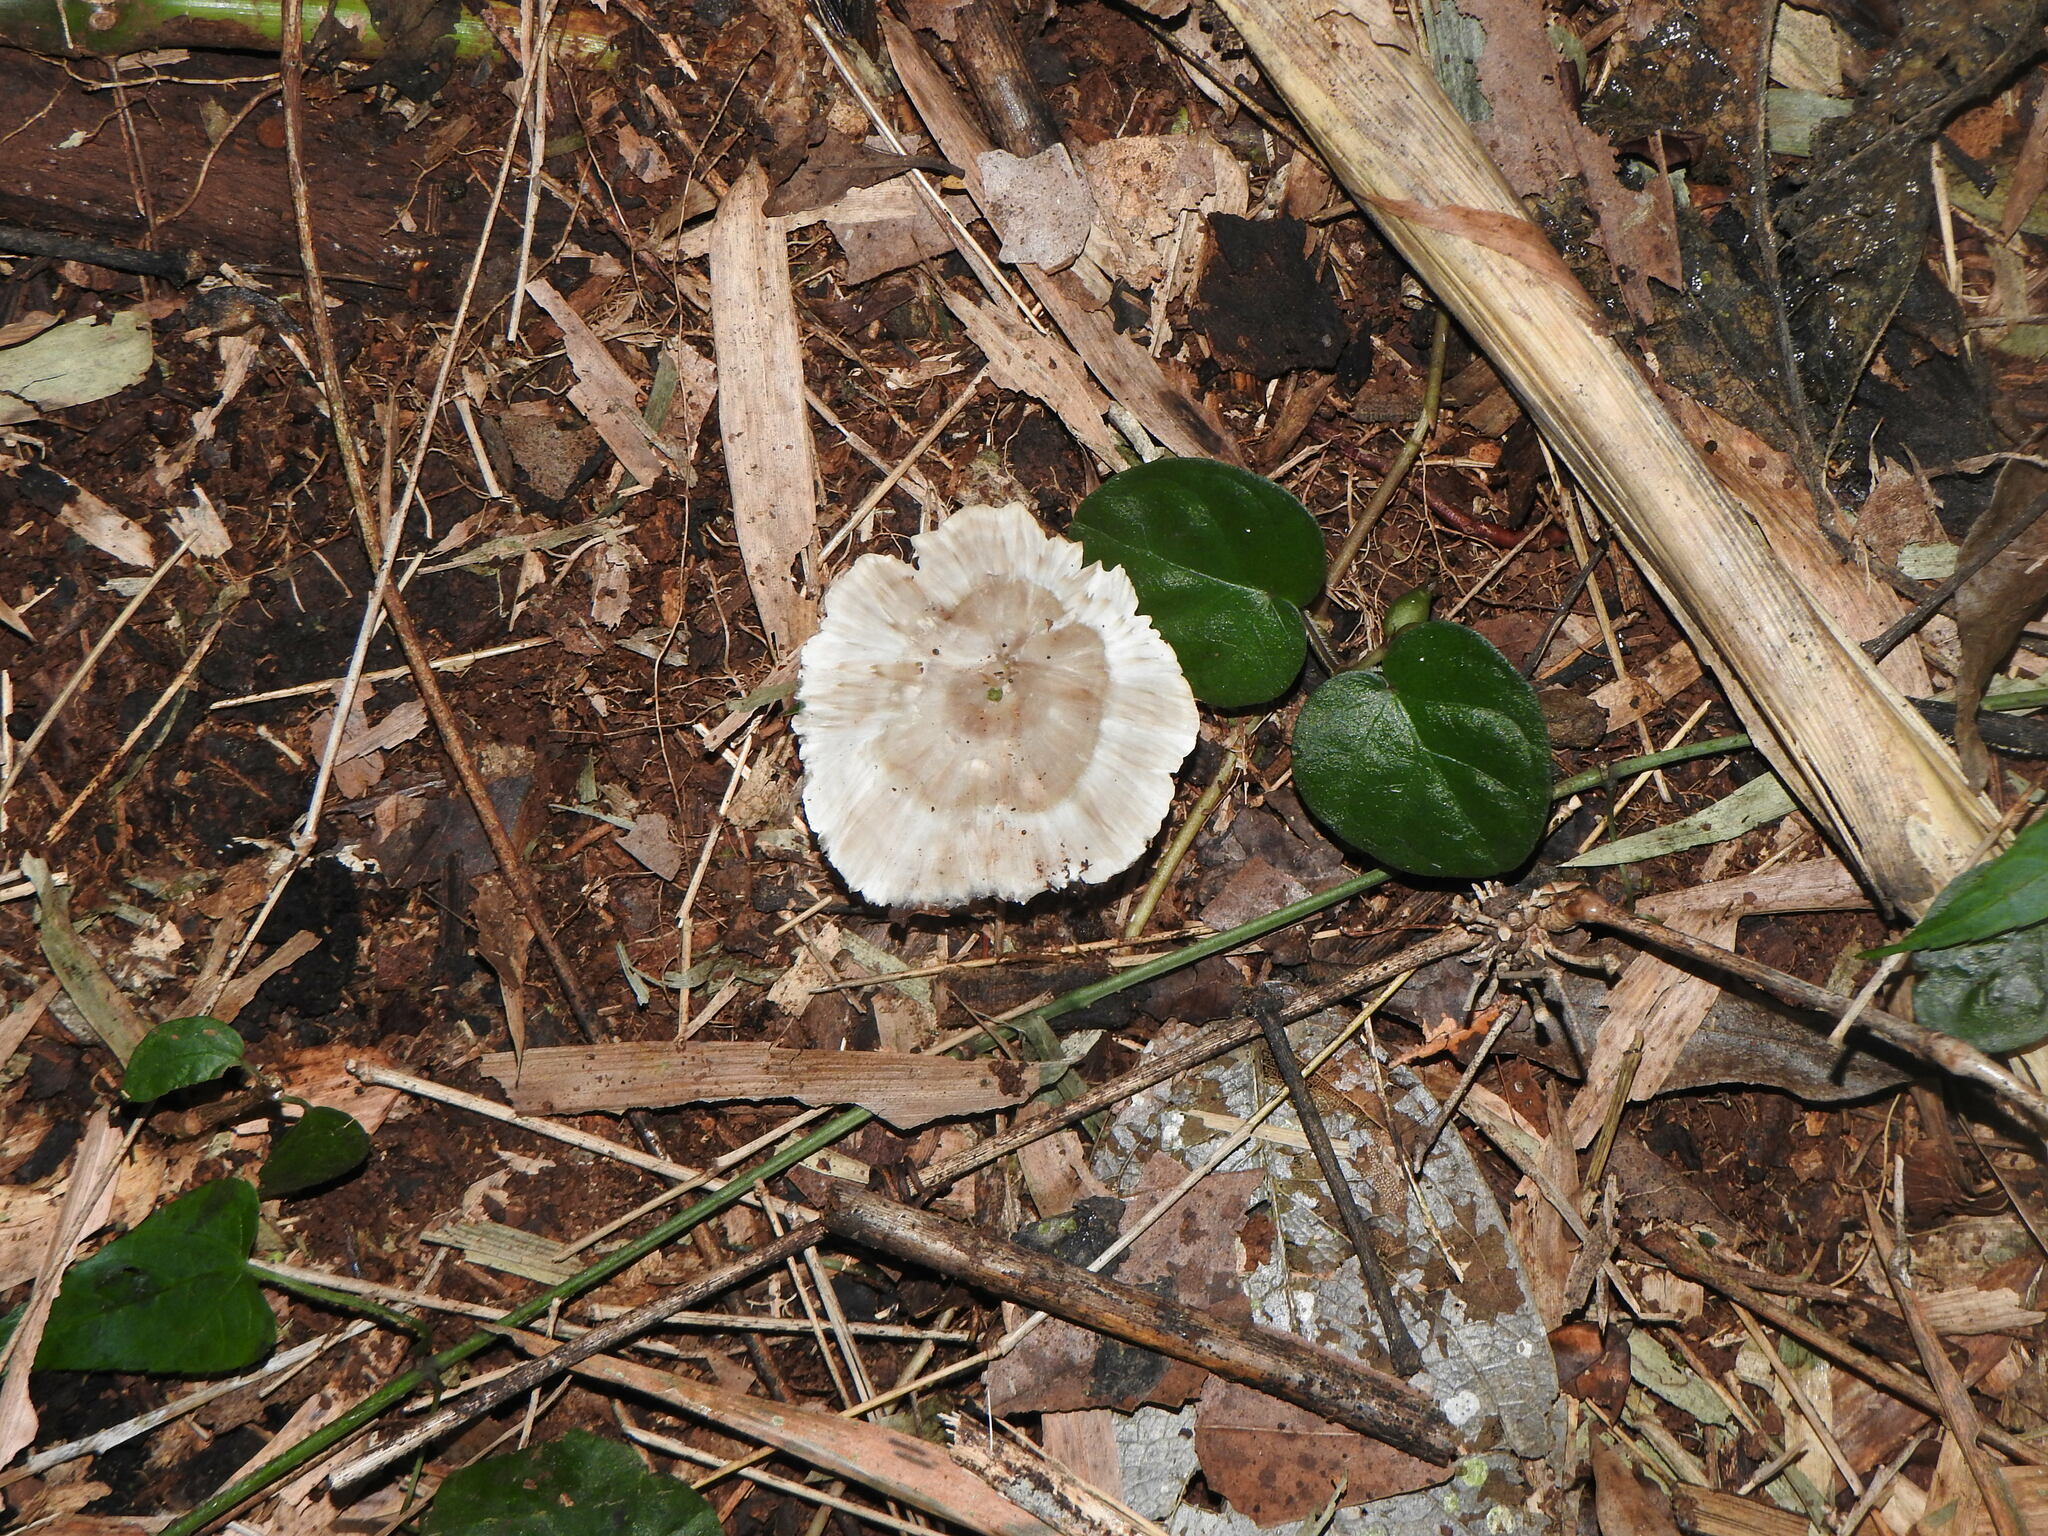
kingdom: Fungi
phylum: Basidiomycota
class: Agaricomycetes
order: Hymenochaetales
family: Rickenellaceae
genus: Cotylidia
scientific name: Cotylidia diaphana
